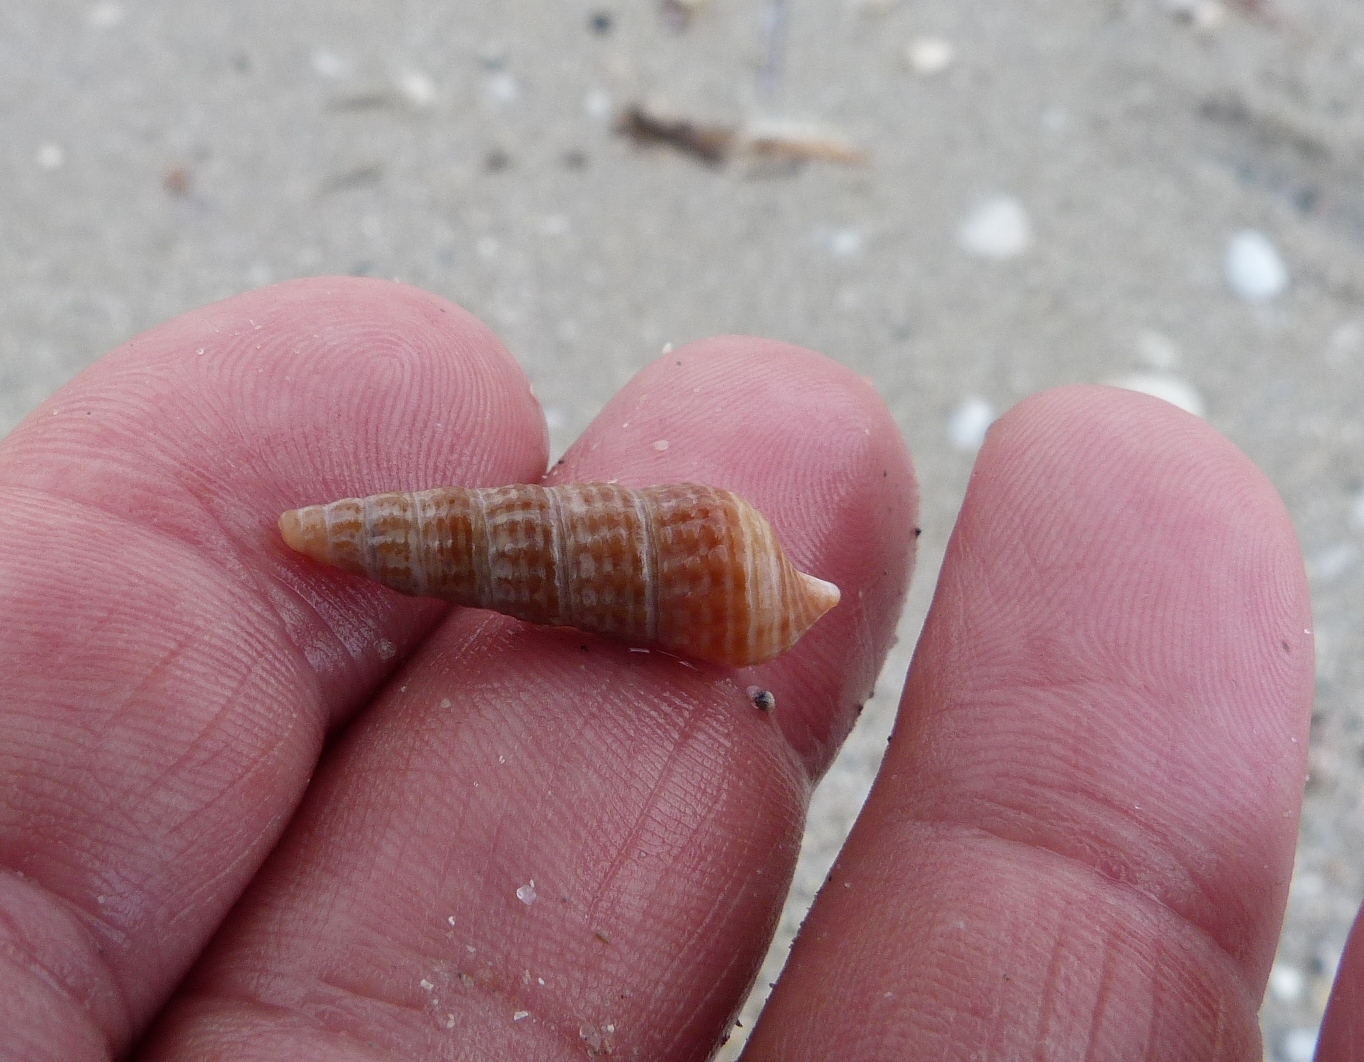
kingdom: Animalia
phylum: Mollusca
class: Gastropoda
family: Batillariidae
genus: Zeacumantus
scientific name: Zeacumantus diemenensis
